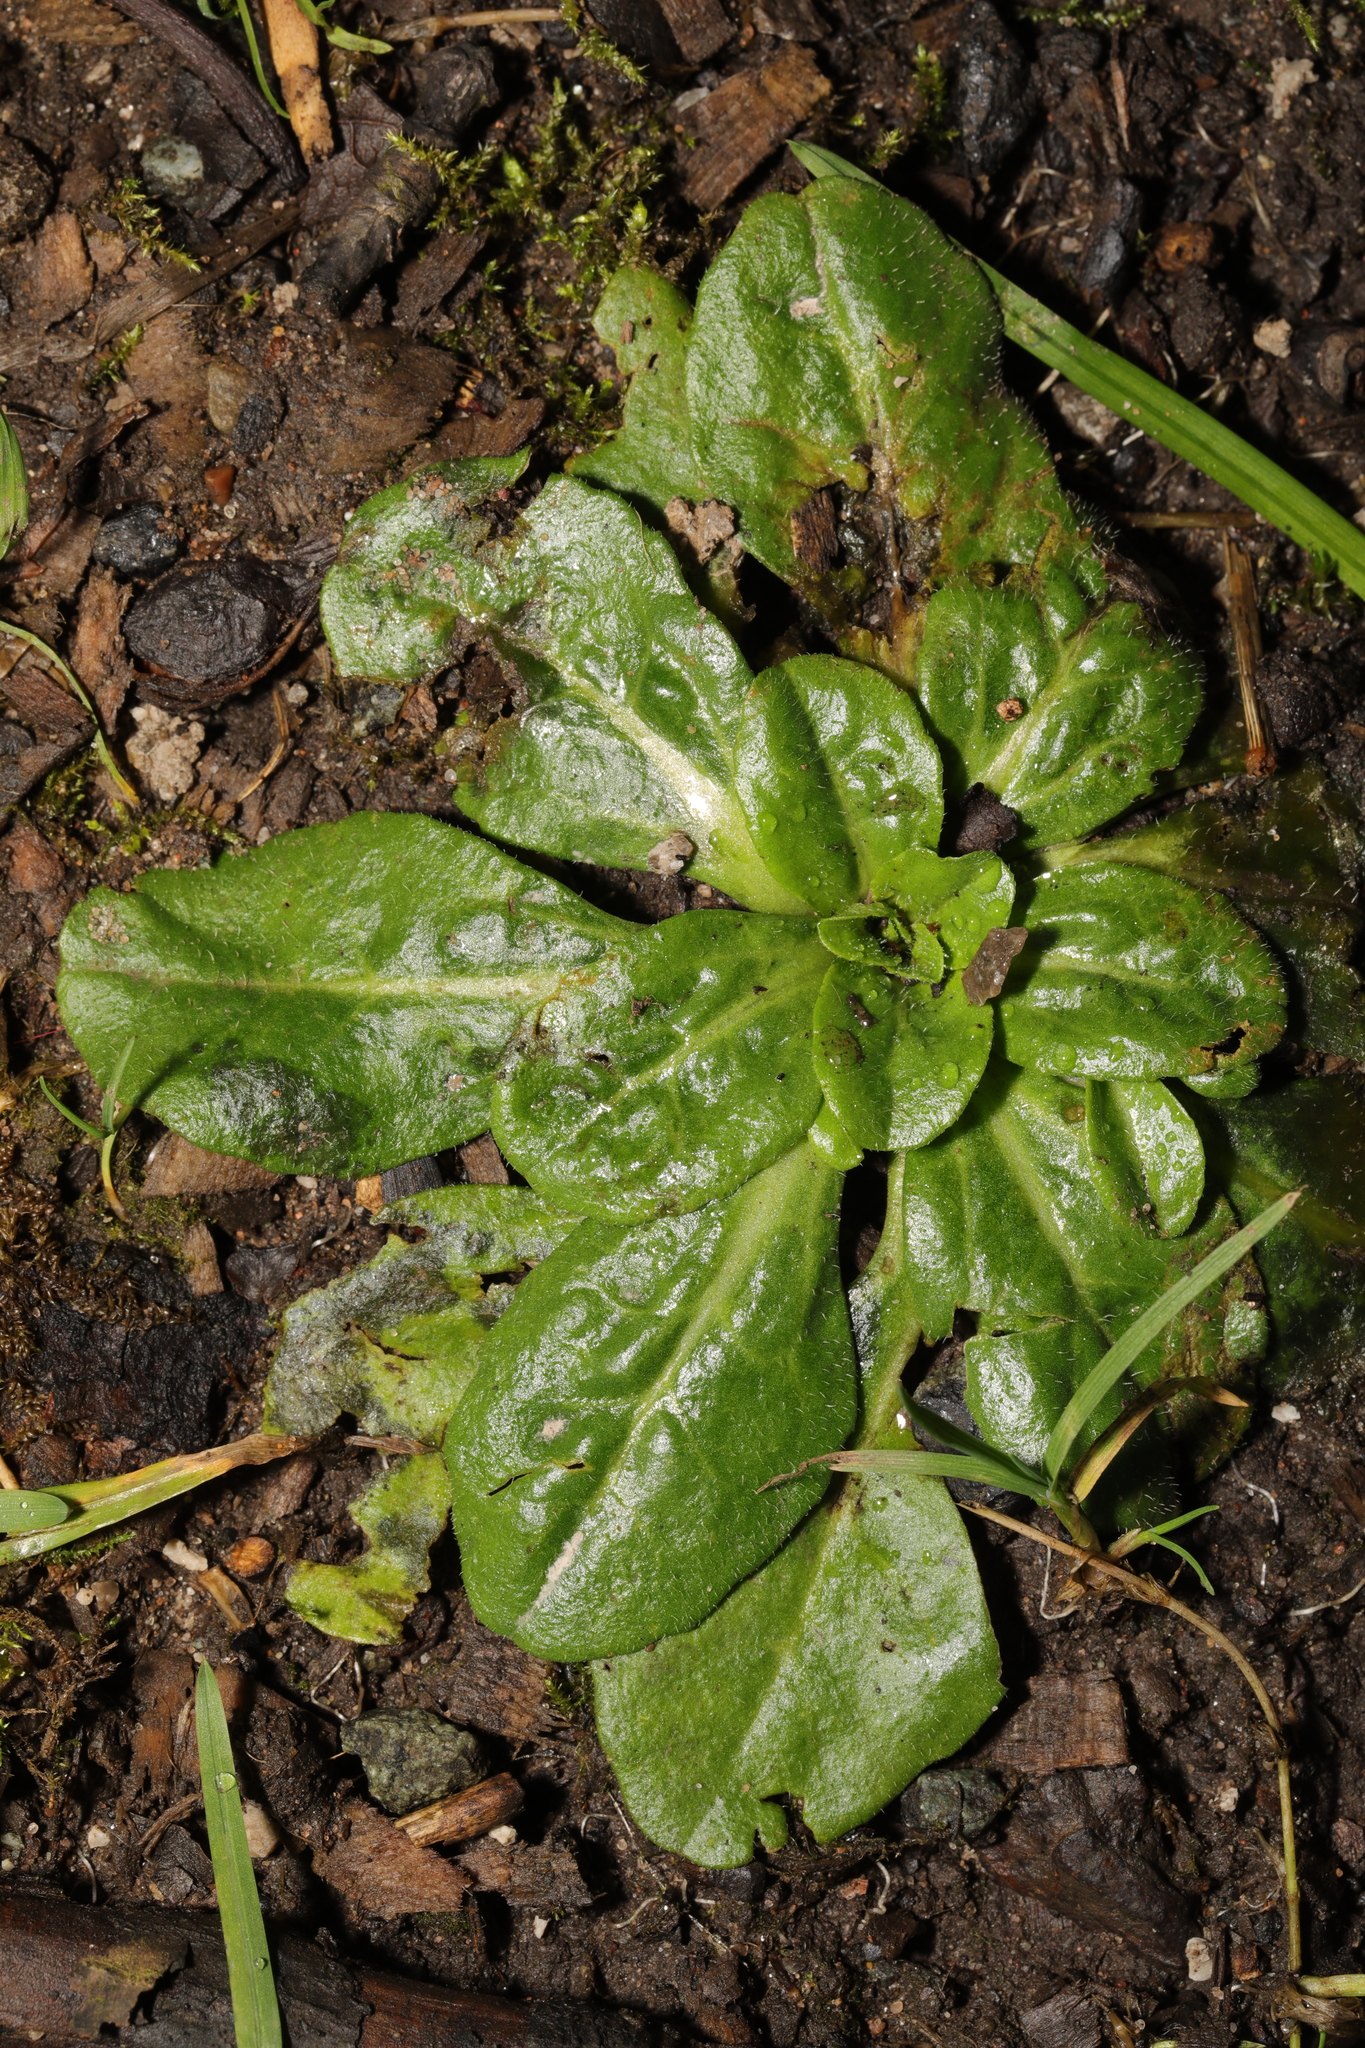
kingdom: Plantae
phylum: Tracheophyta
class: Magnoliopsida
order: Asterales
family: Asteraceae
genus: Bellis
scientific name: Bellis perennis
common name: Lawndaisy
